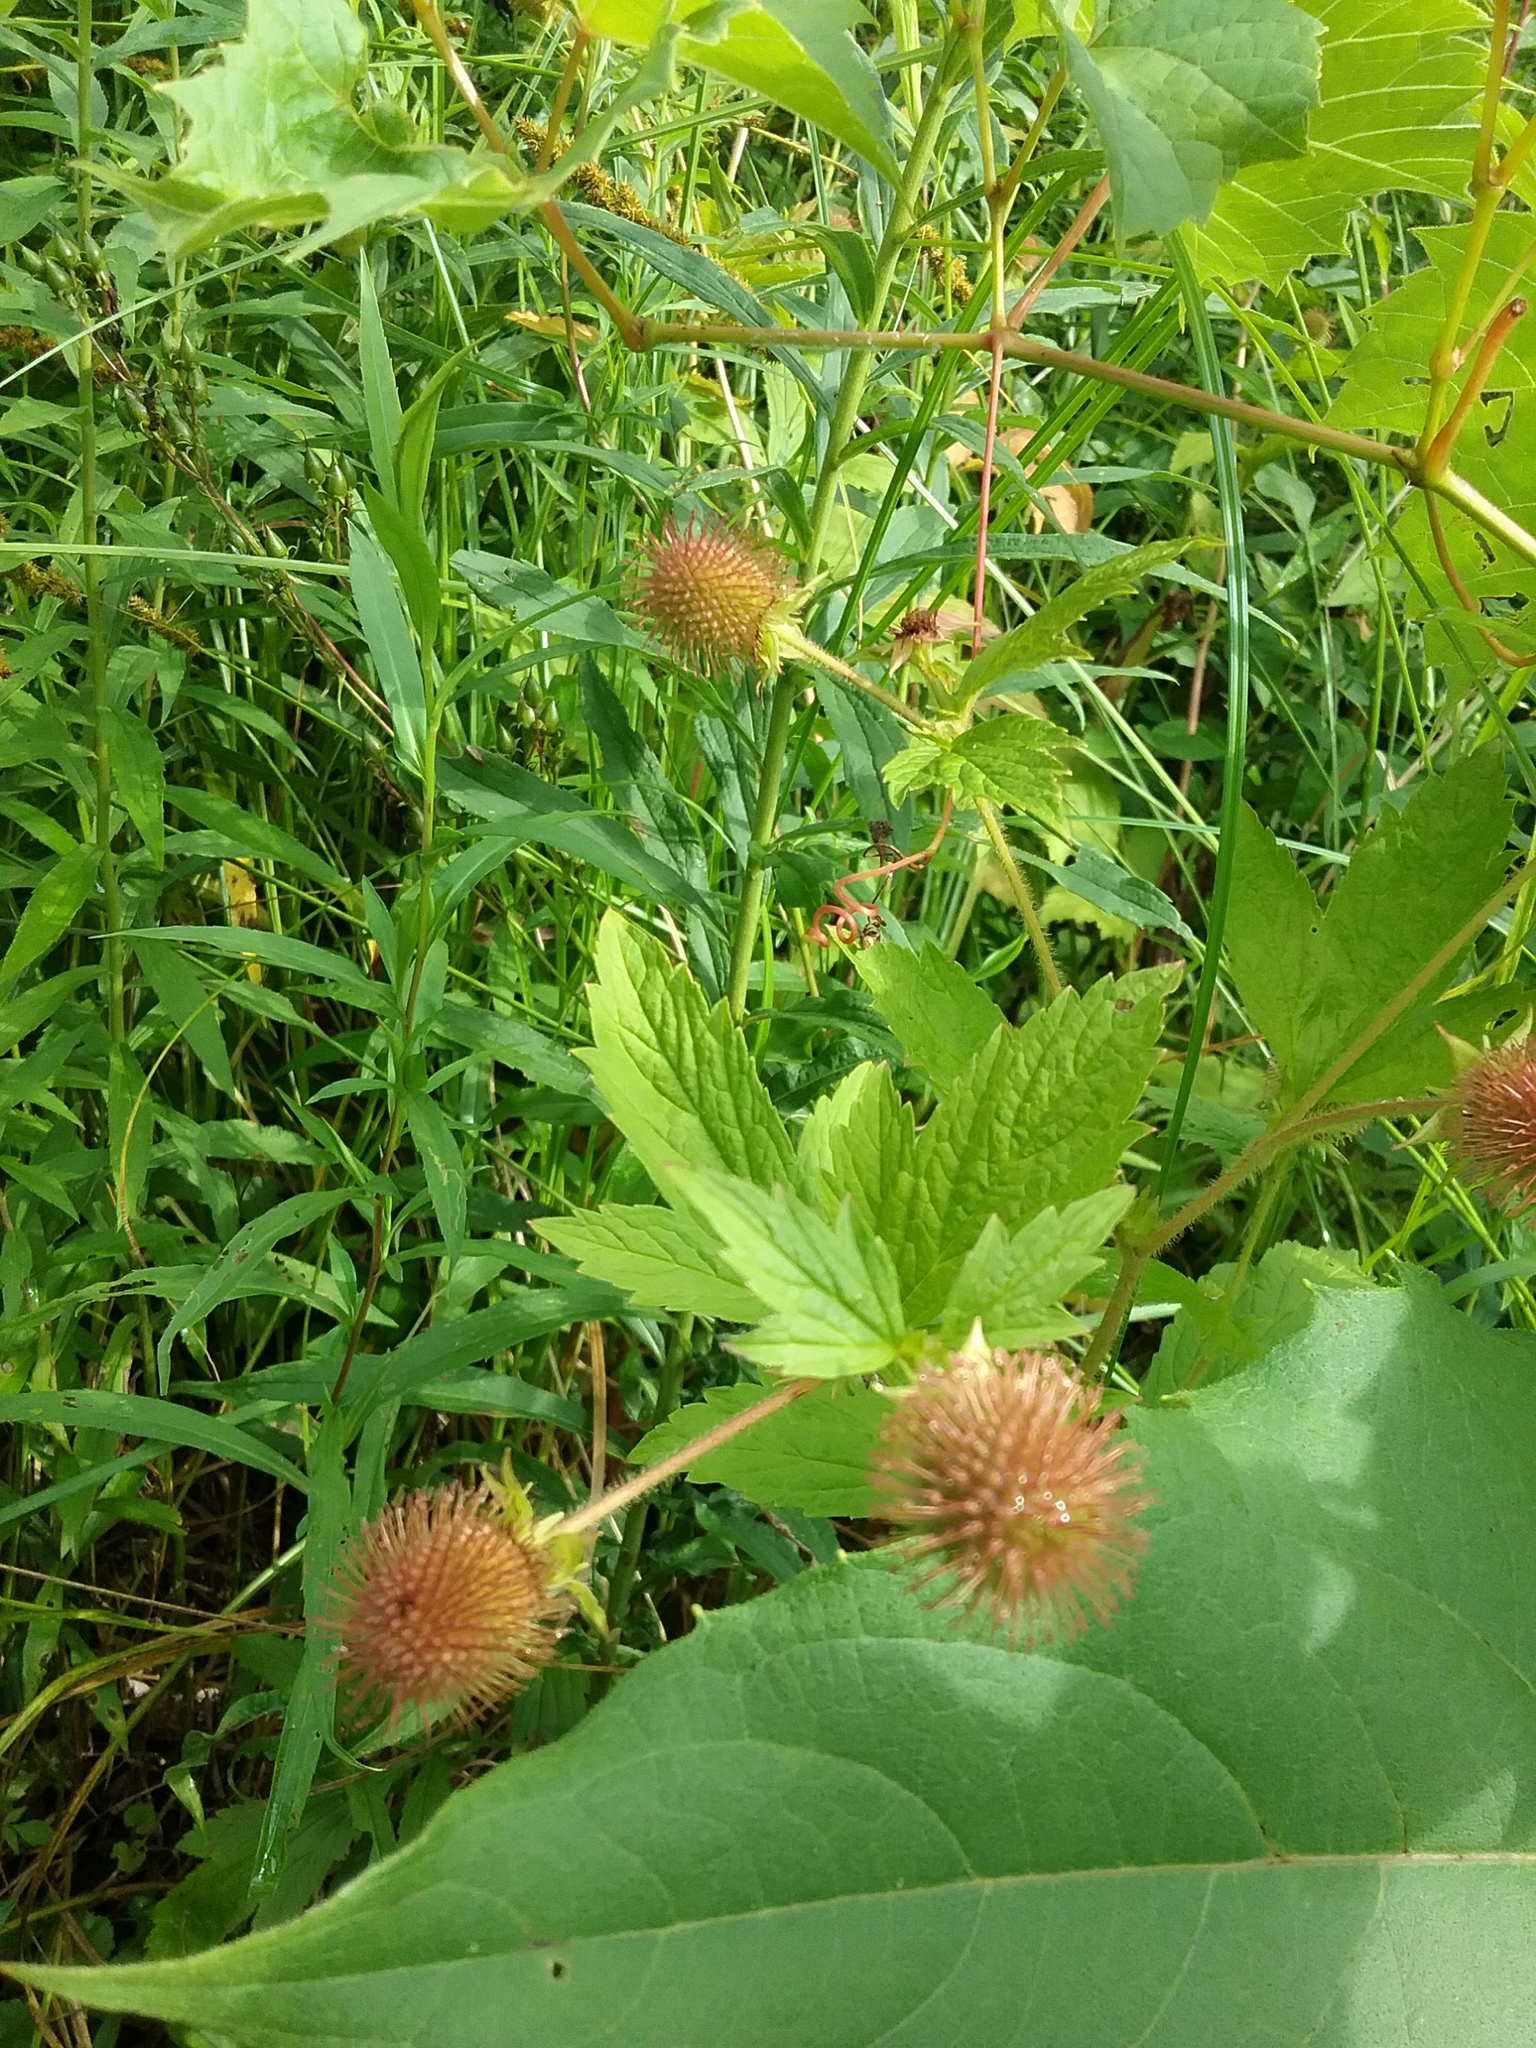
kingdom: Plantae
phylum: Tracheophyta
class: Magnoliopsida
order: Rosales
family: Rosaceae
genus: Geum
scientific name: Geum laciniatum
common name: Rough avens
